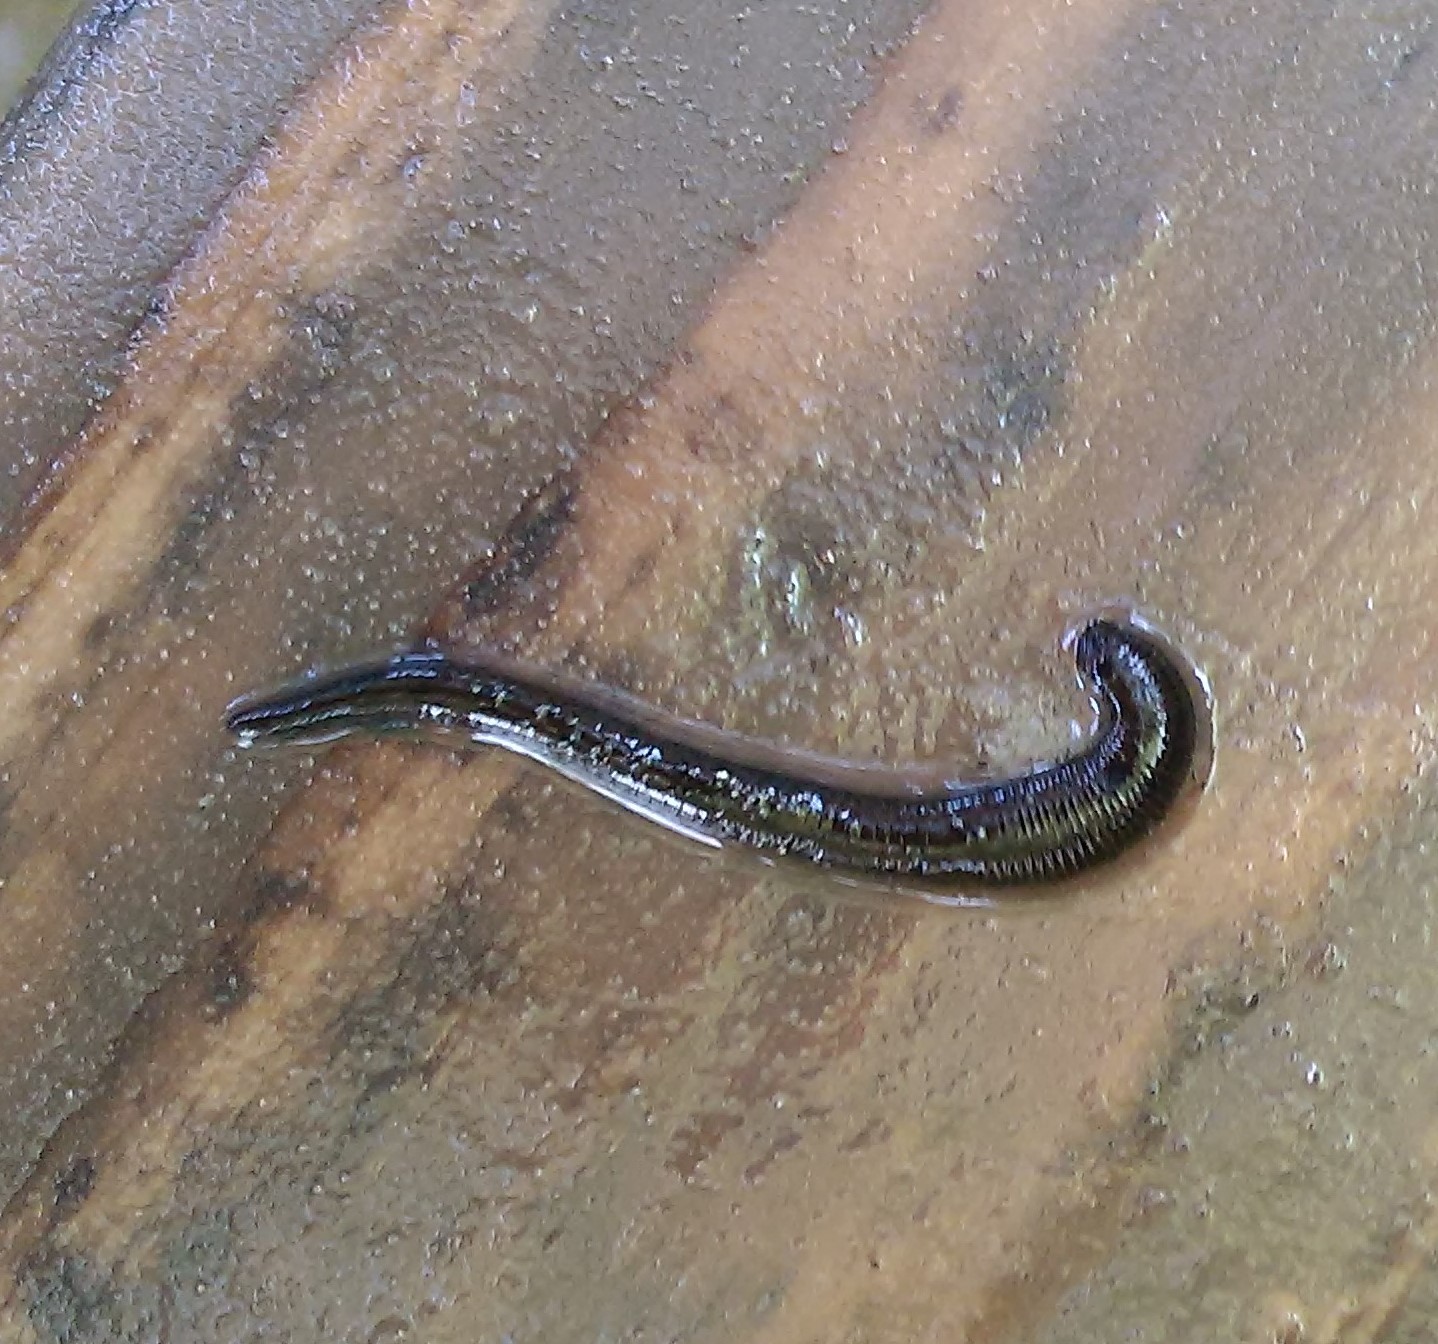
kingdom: Animalia
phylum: Annelida
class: Clitellata
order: Arhynchobdellida
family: Haemopidae
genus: Haemopis
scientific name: Haemopis sanguisuga
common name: Horse leech
